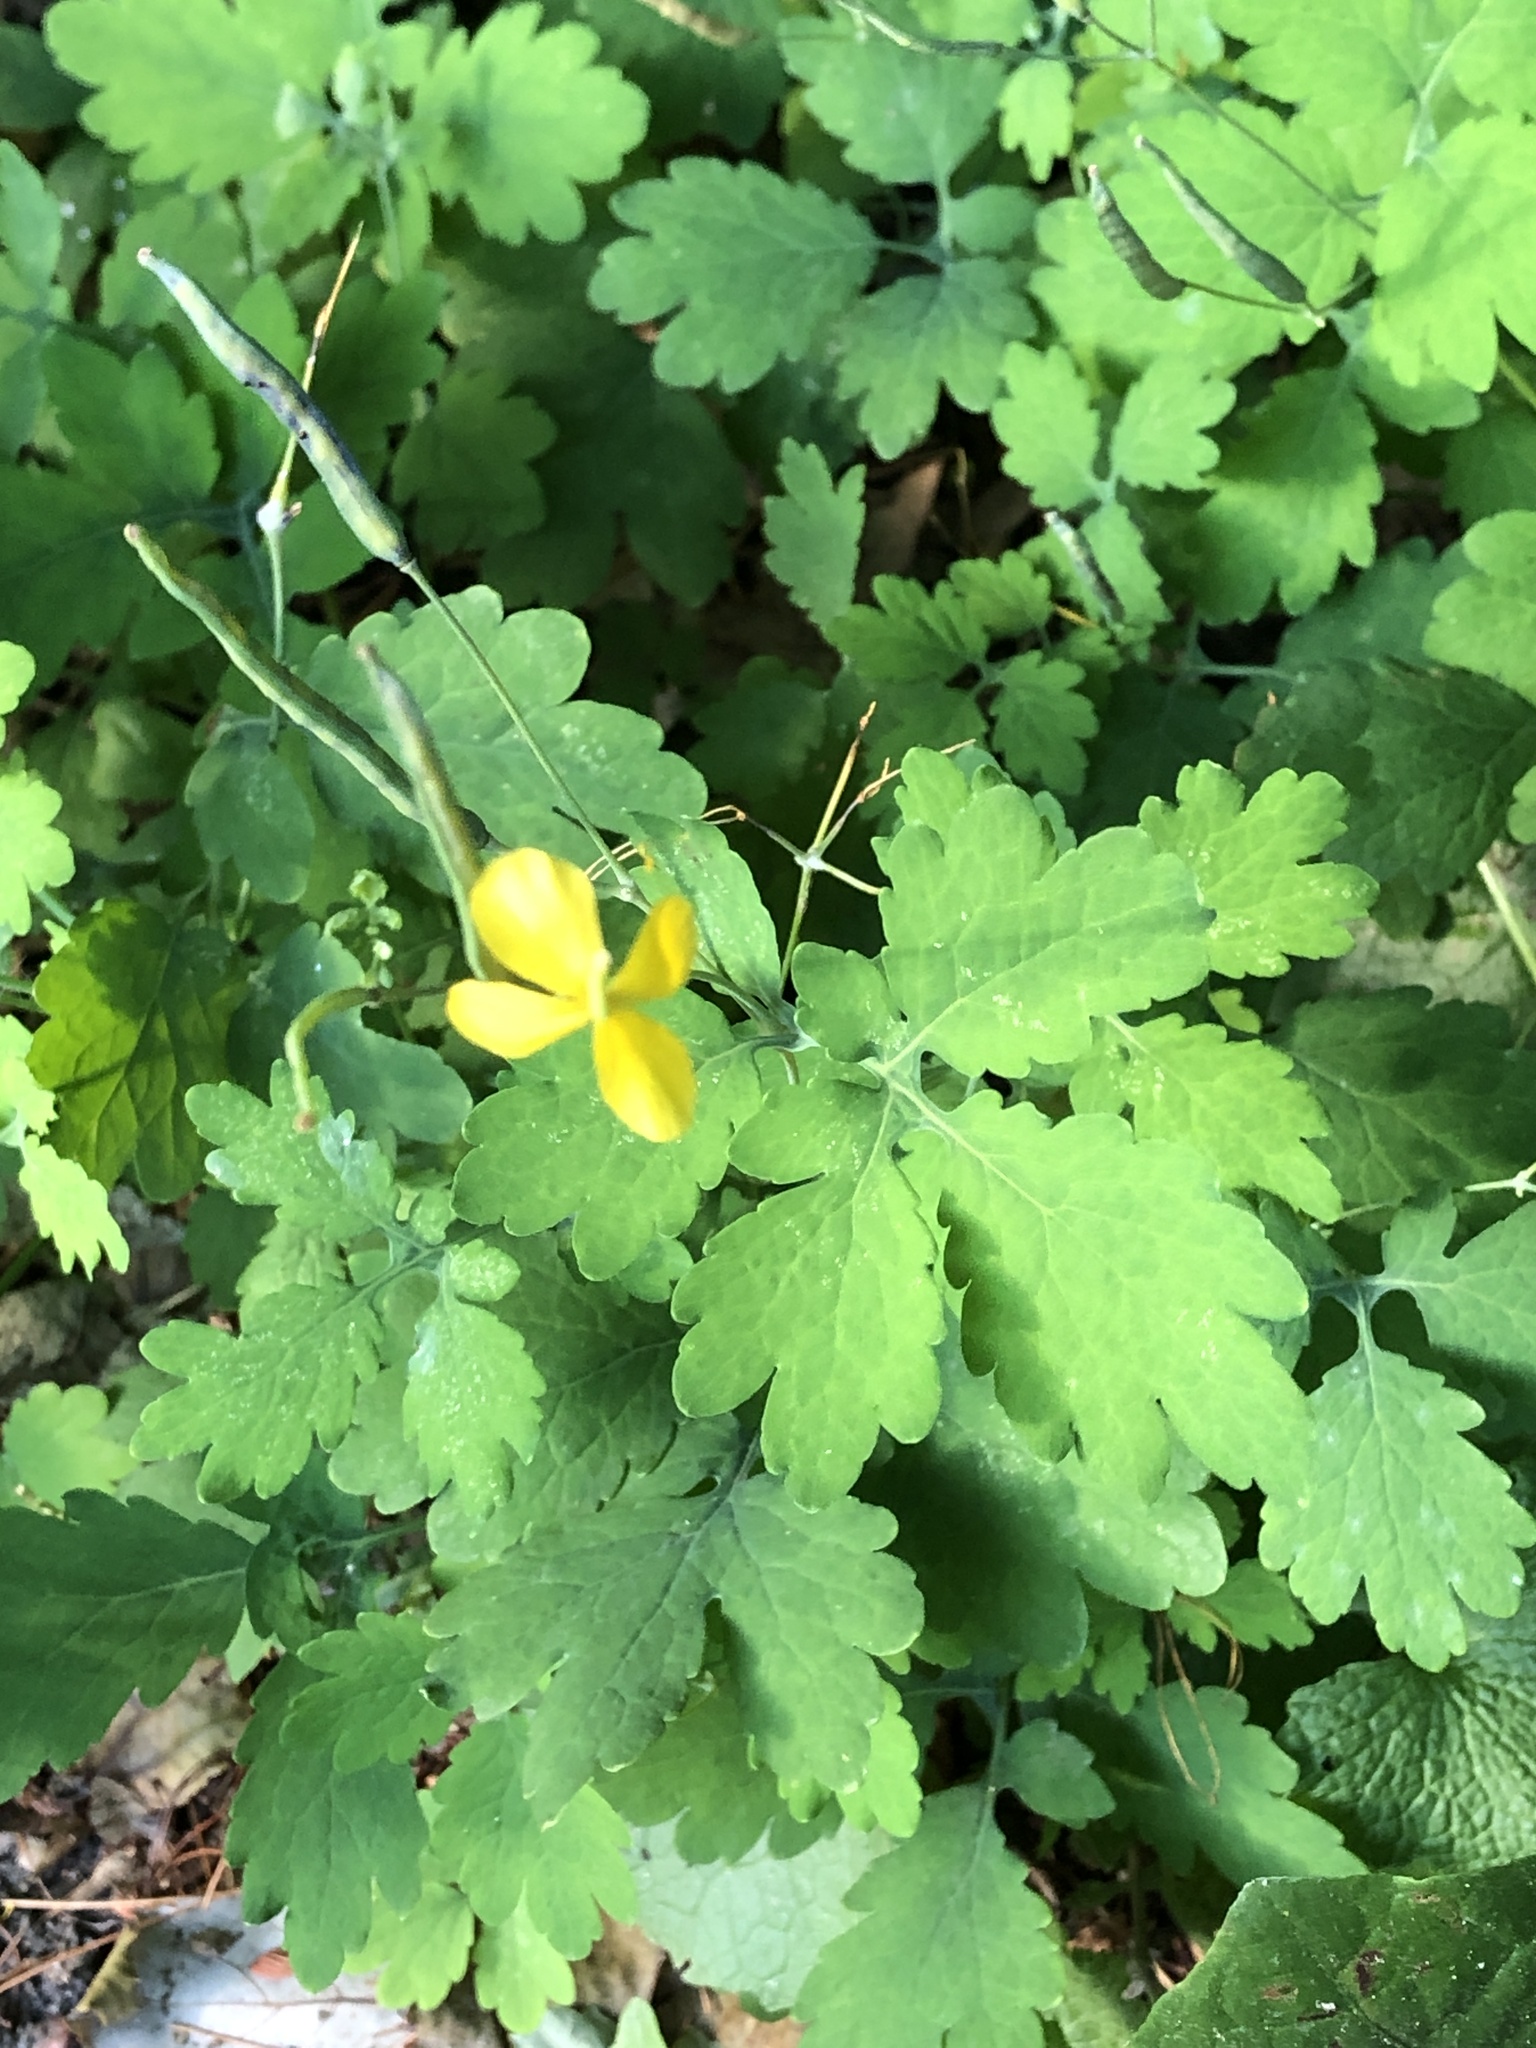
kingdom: Plantae
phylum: Tracheophyta
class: Magnoliopsida
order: Ranunculales
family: Papaveraceae
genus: Chelidonium
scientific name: Chelidonium majus
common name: Greater celandine
